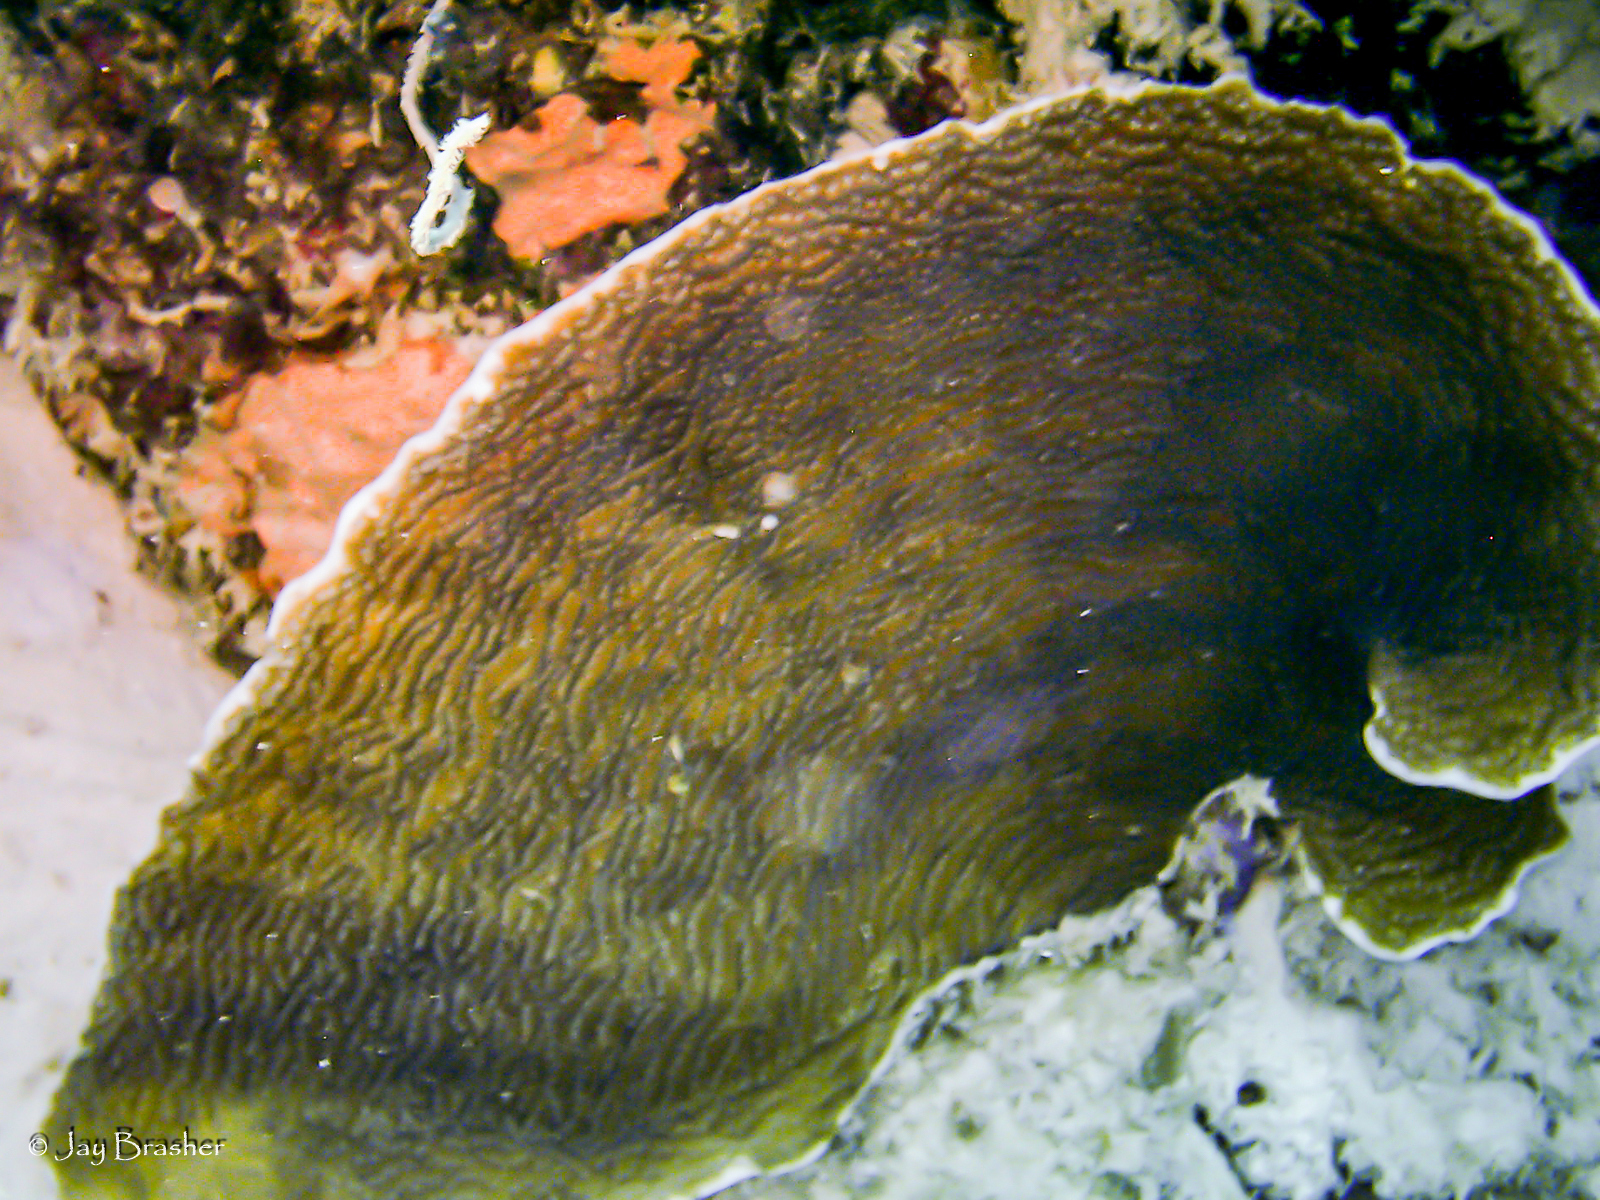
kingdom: Animalia
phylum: Cnidaria
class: Anthozoa
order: Scleractinia
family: Agariciidae
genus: Agaricia
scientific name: Agaricia lamarcki
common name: Lamarck's sheet coral
